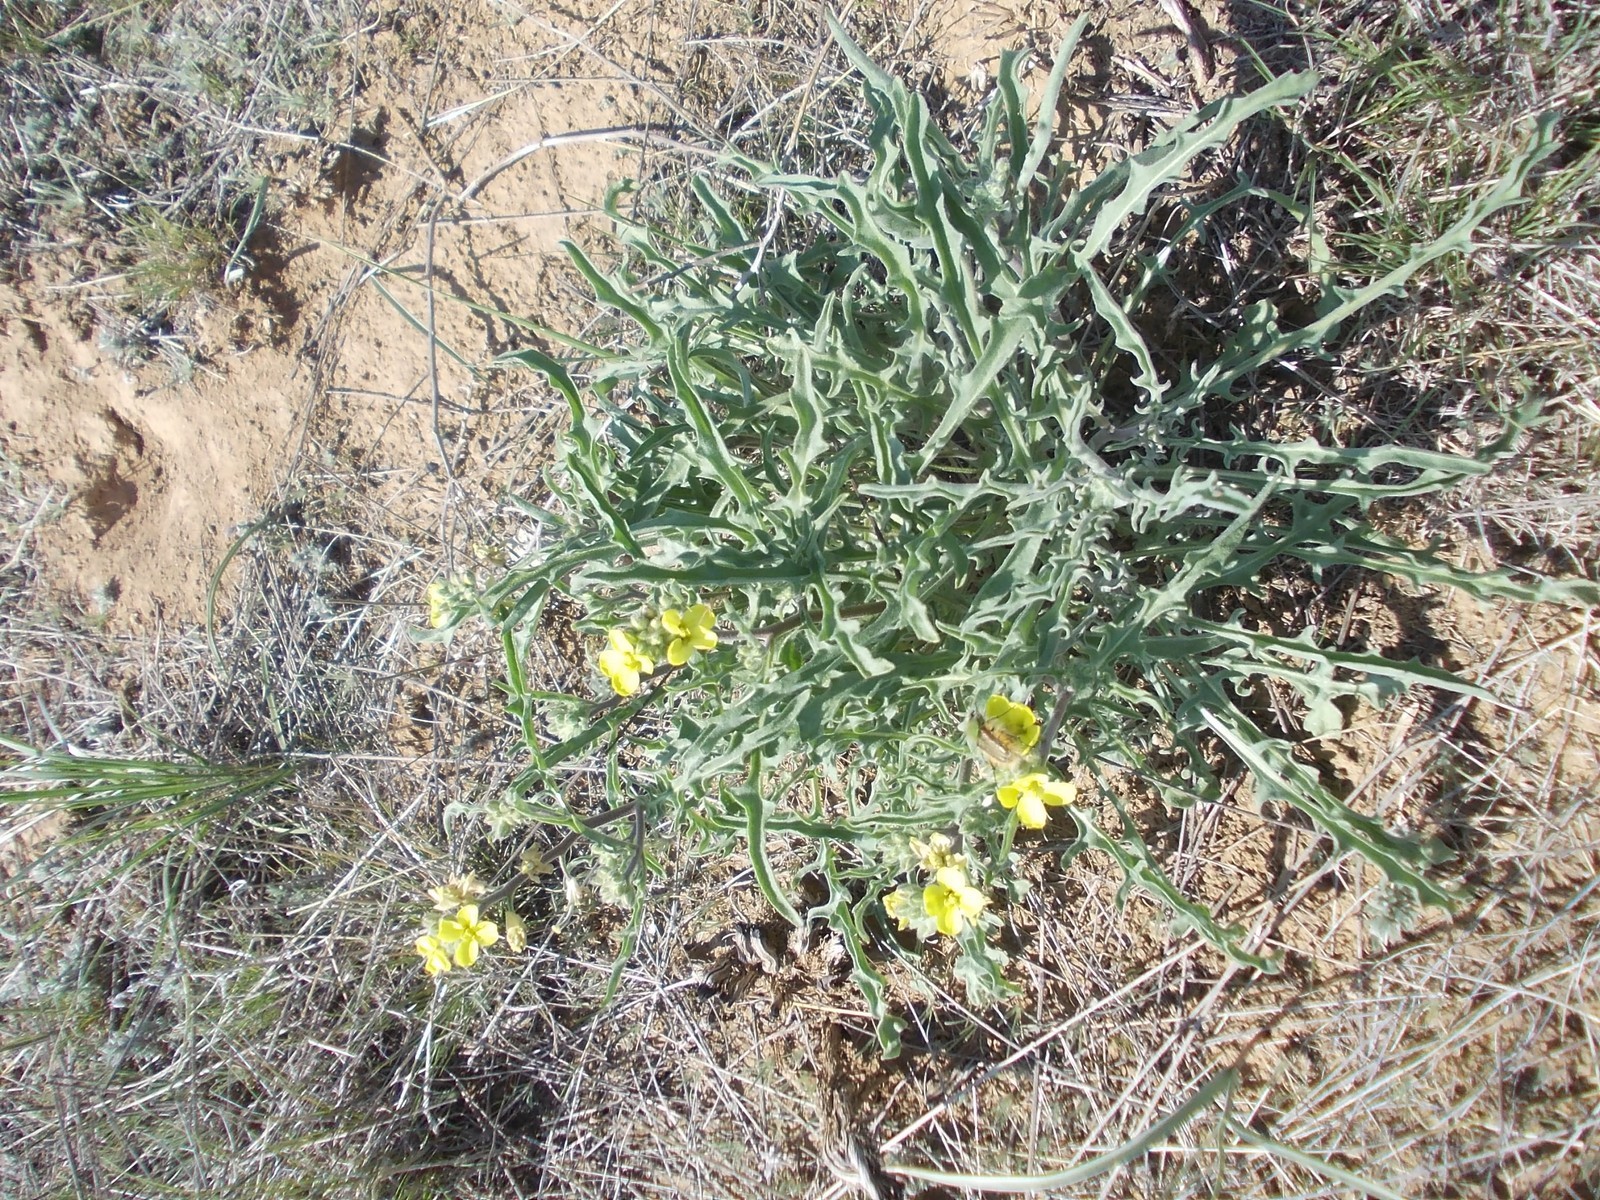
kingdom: Plantae
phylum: Tracheophyta
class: Magnoliopsida
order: Brassicales
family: Brassicaceae
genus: Sterigmostemum
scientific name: Sterigmostemum caspicum
